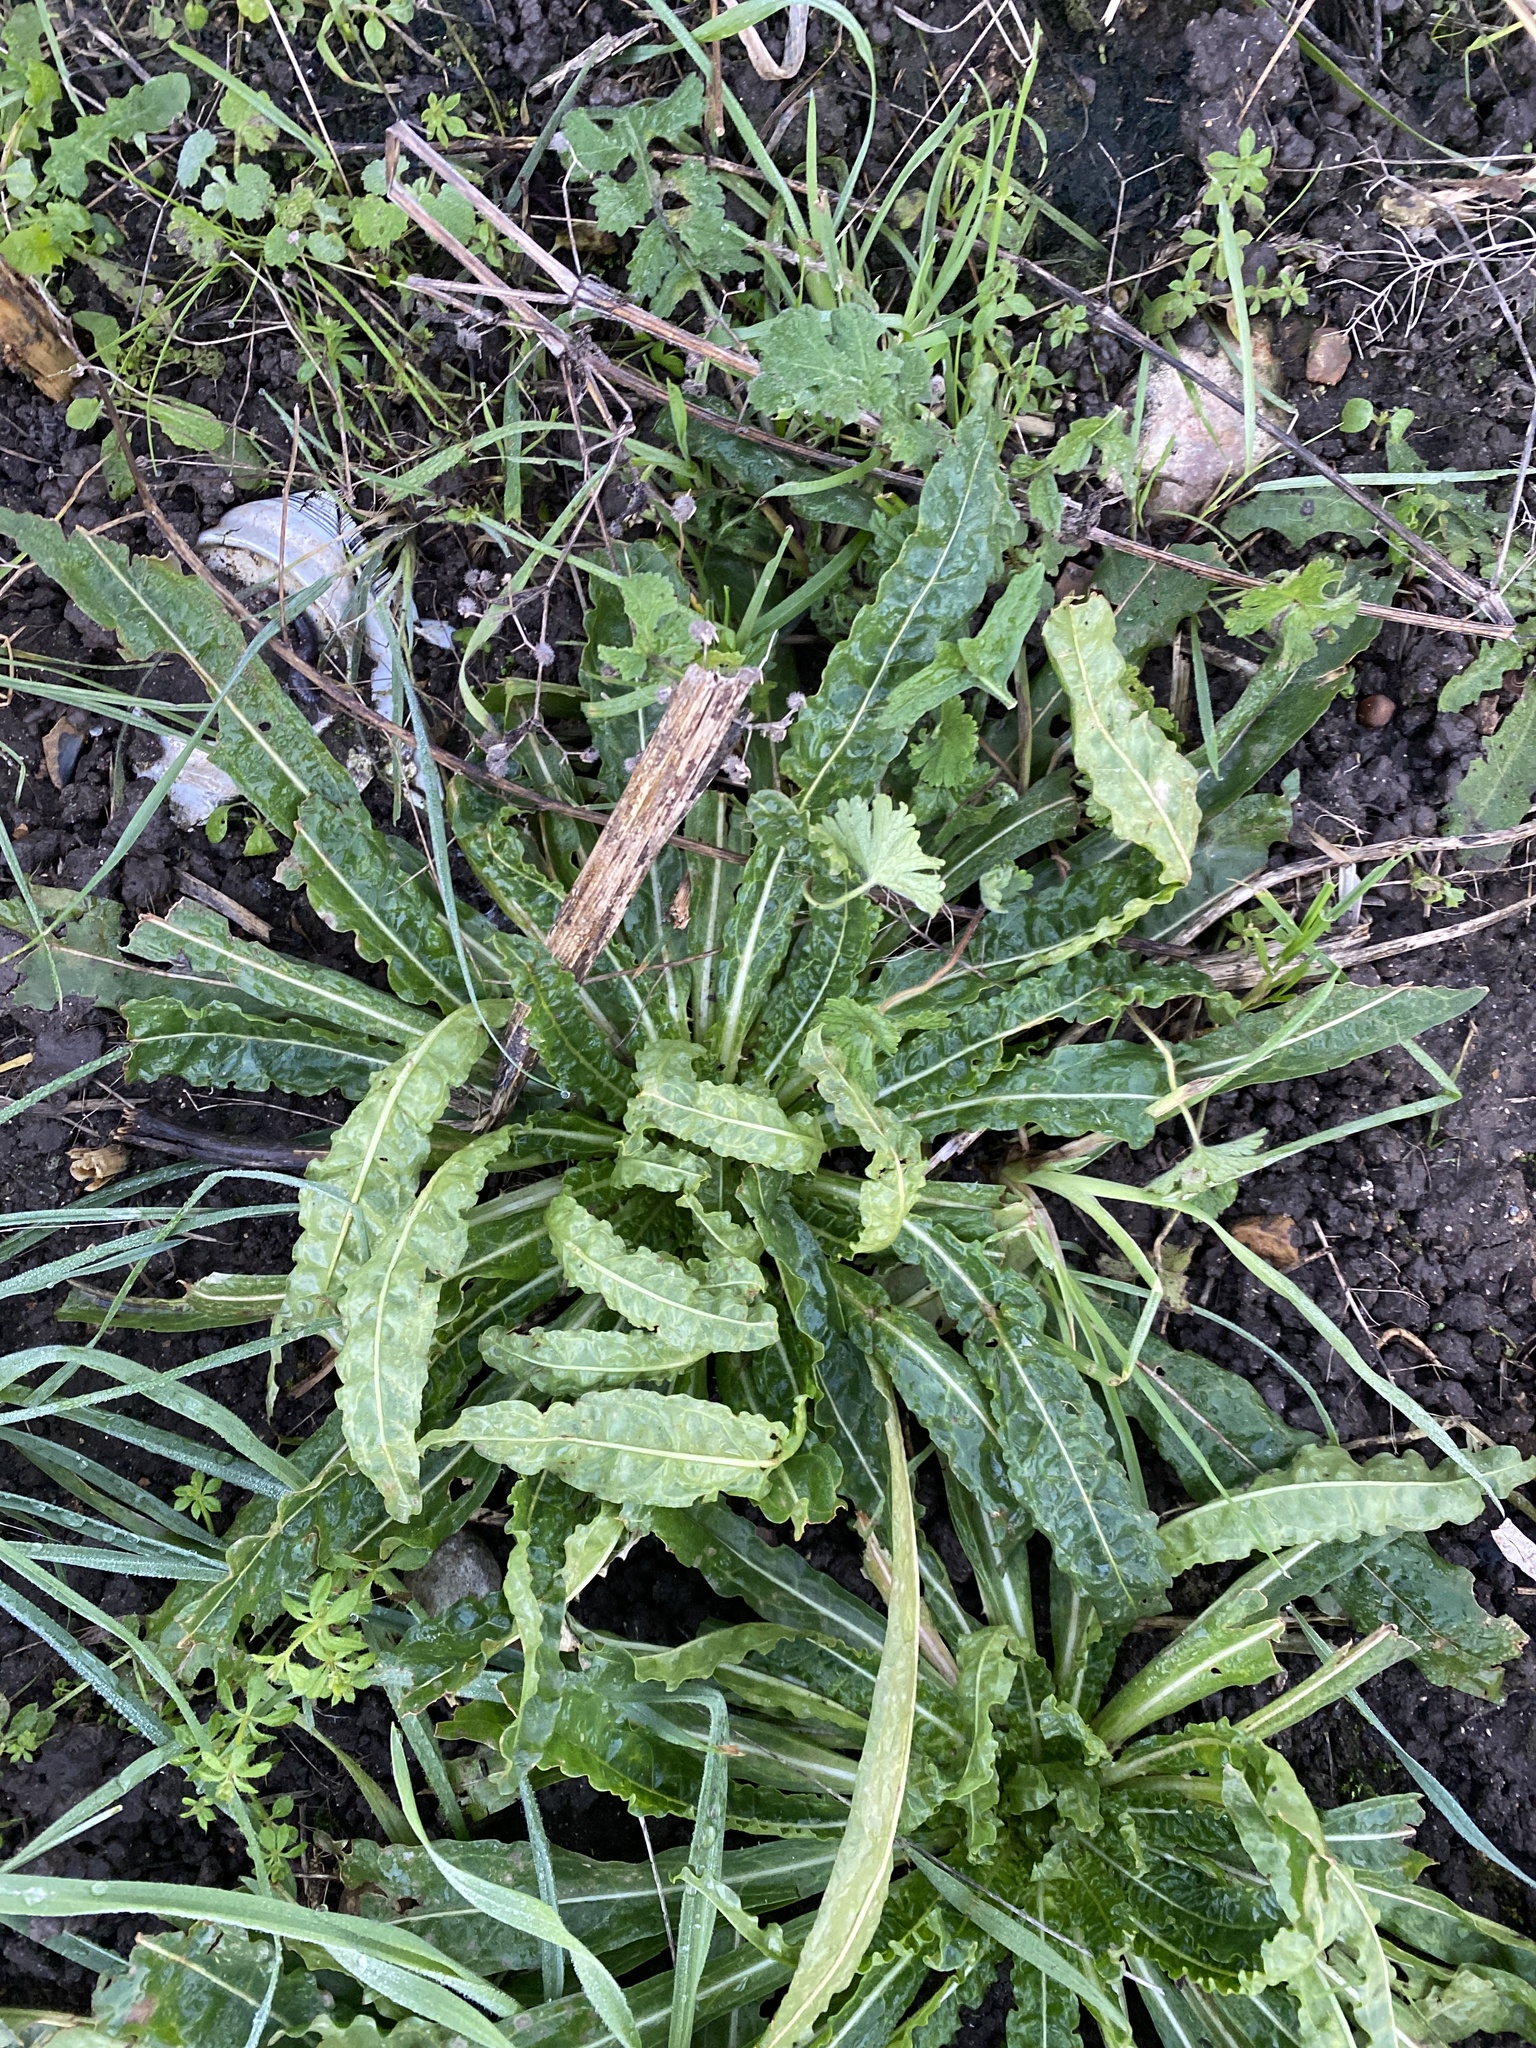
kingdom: Plantae
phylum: Tracheophyta
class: Magnoliopsida
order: Brassicales
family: Resedaceae
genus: Reseda
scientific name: Reseda luteola
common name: Weld
